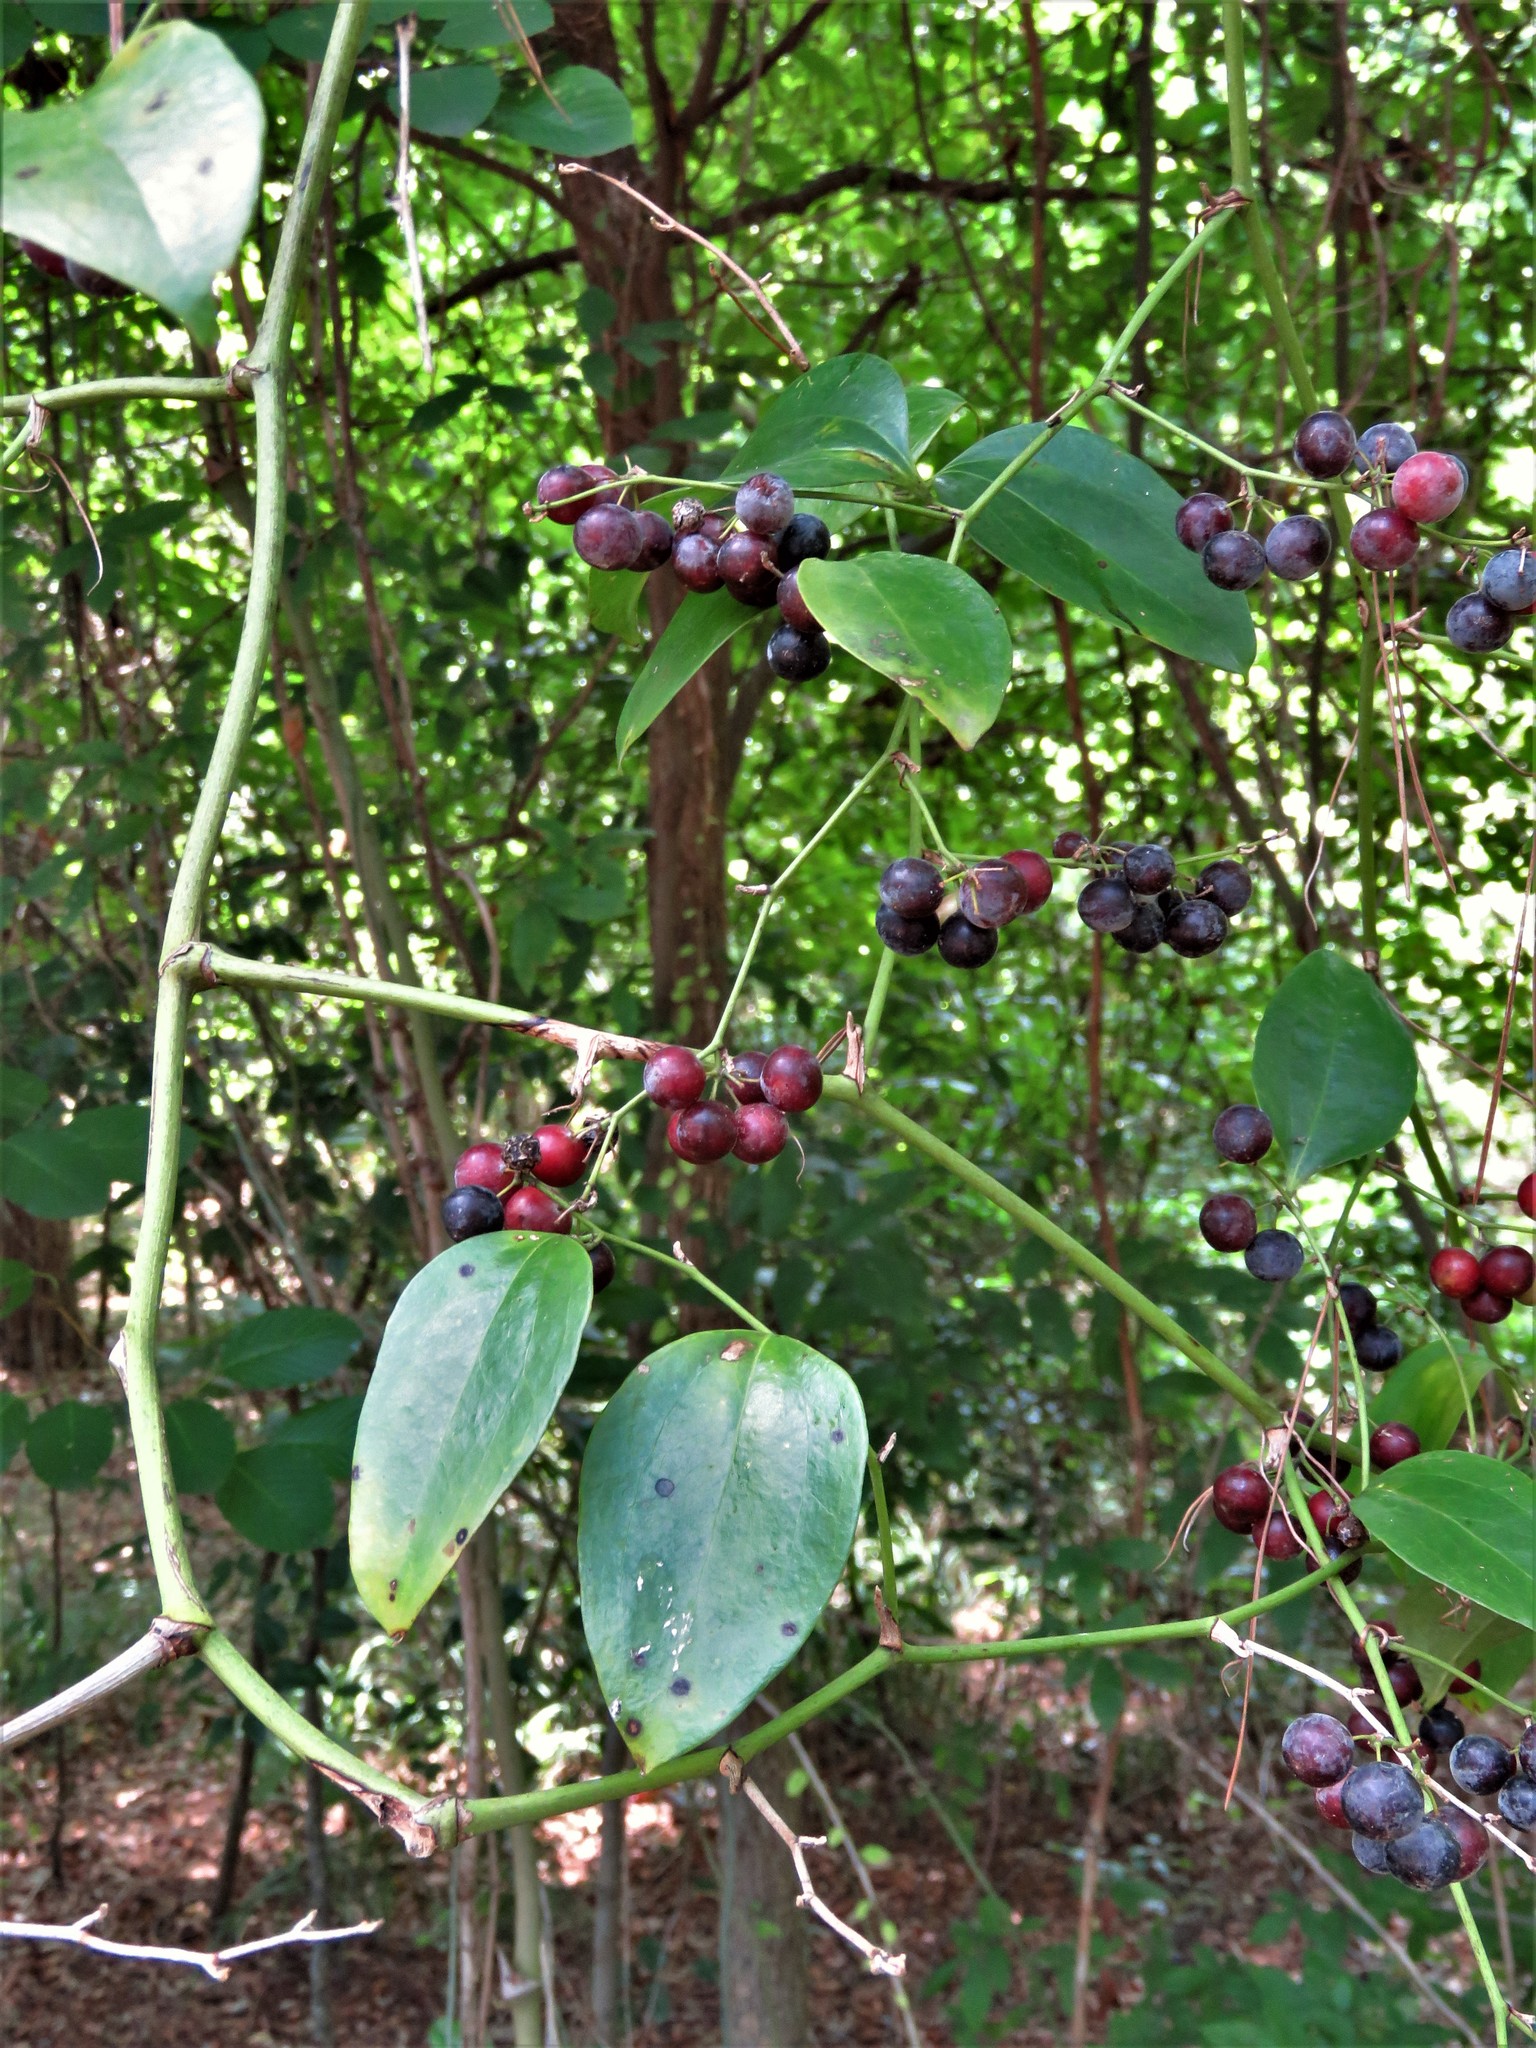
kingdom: Plantae
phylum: Tracheophyta
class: Liliopsida
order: Liliales
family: Smilacaceae
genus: Smilax
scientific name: Smilax maritima
